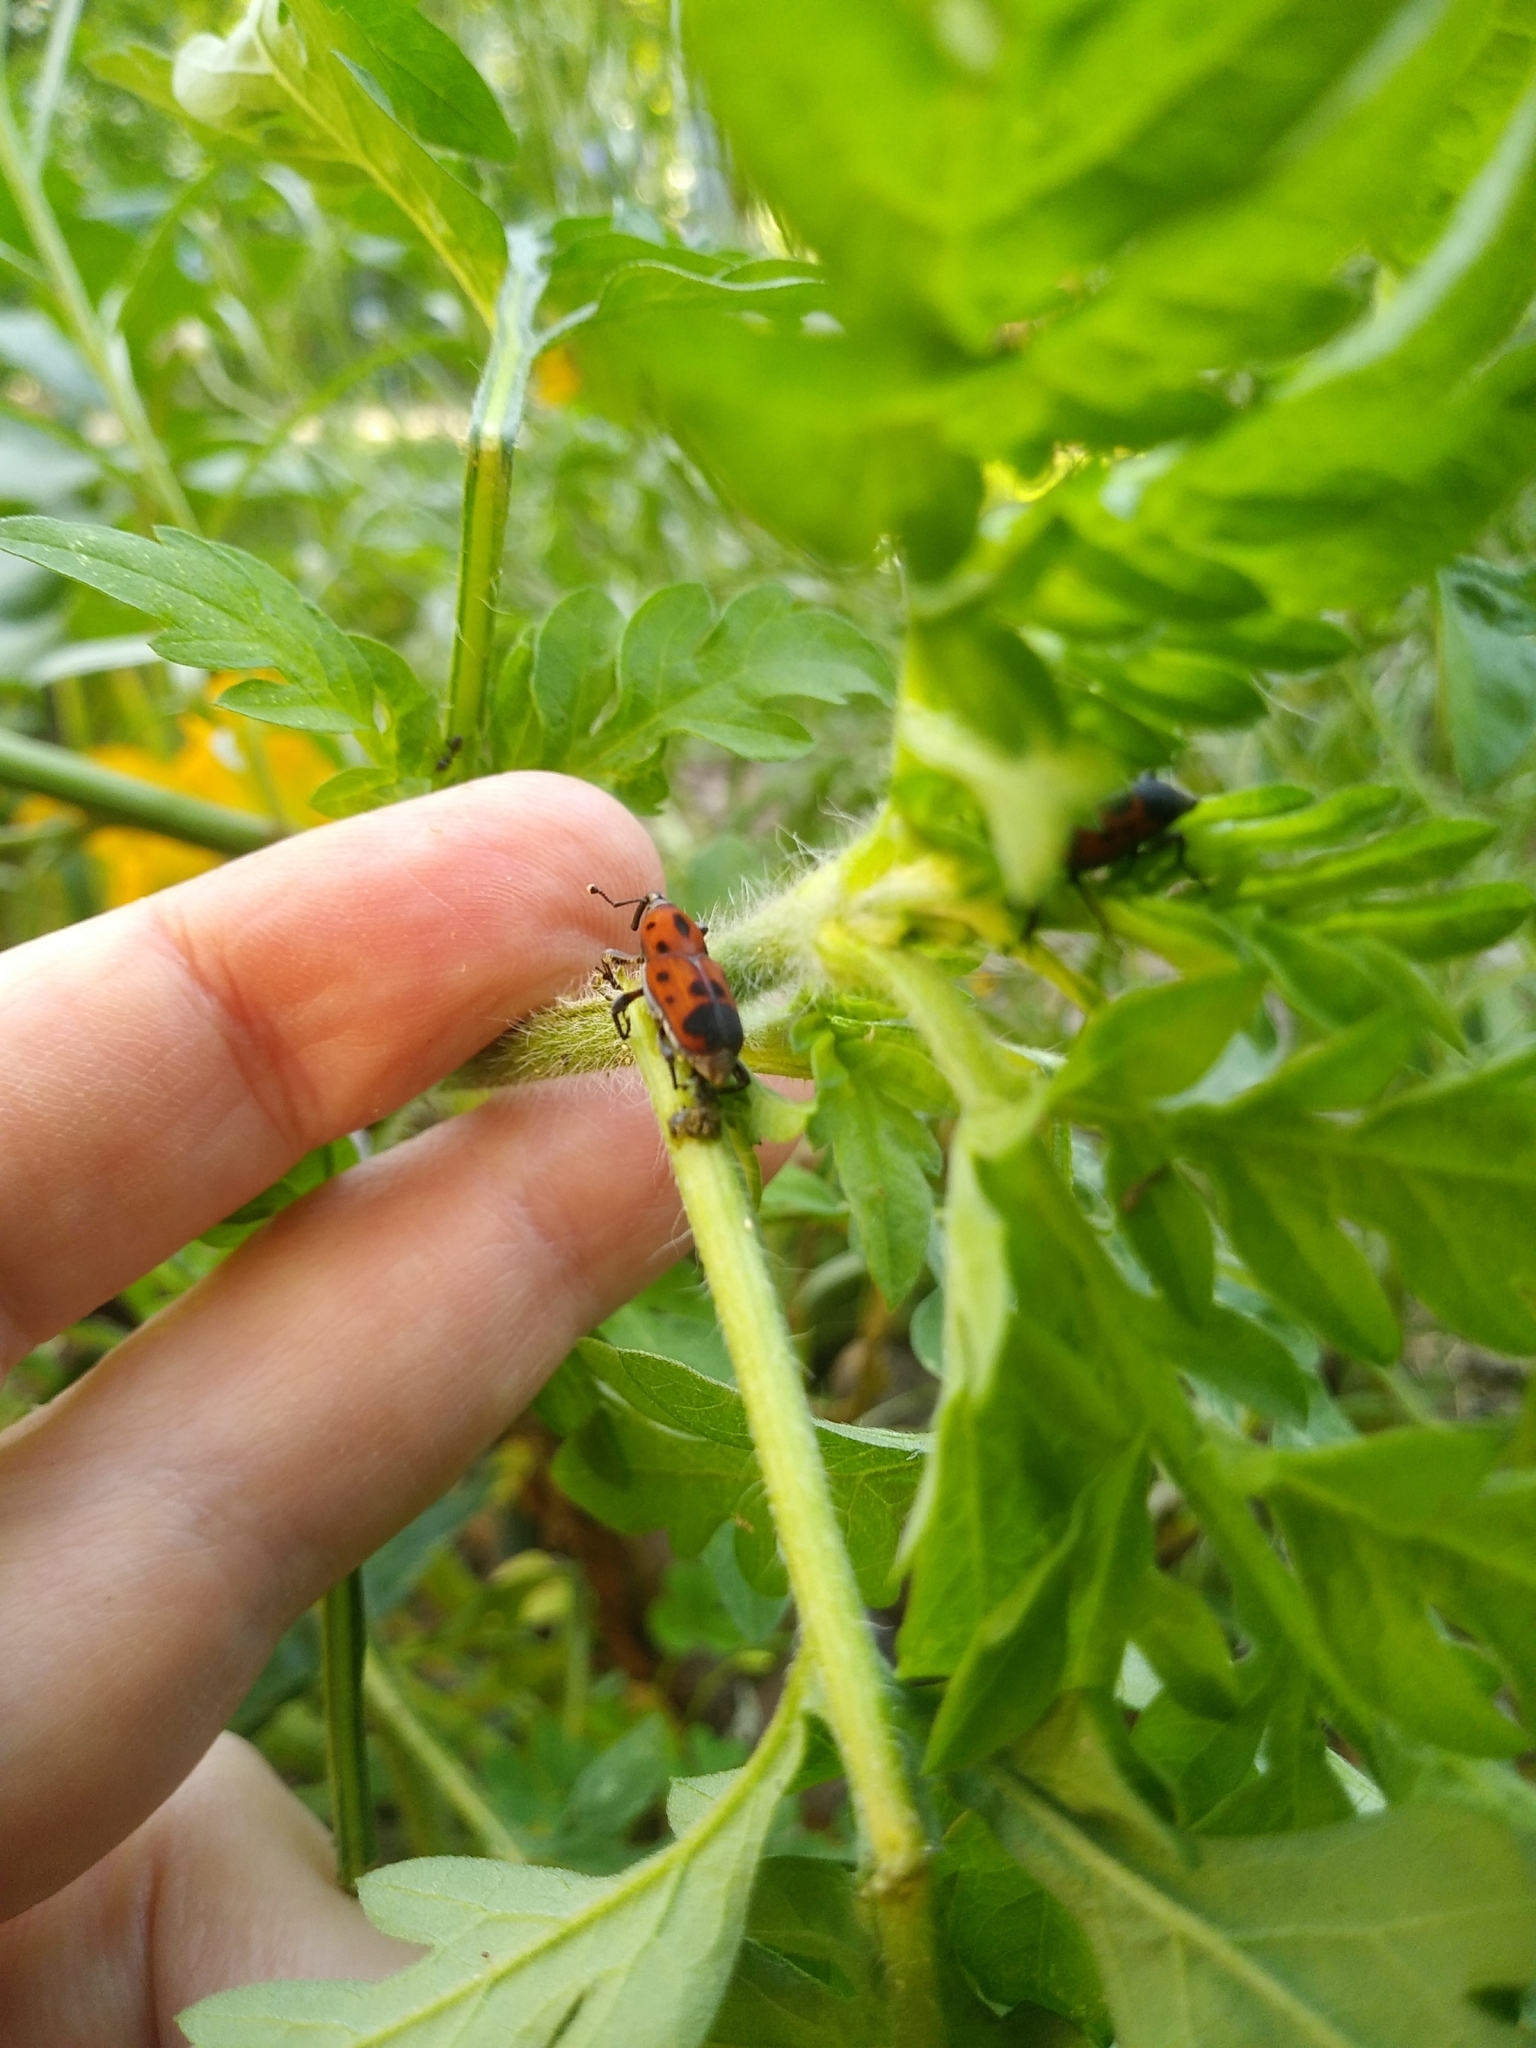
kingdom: Animalia
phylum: Arthropoda
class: Insecta
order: Coleoptera
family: Dryophthoridae
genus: Rhodobaenus
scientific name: Rhodobaenus quinquepunctatus
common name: Cocklebur weevil
